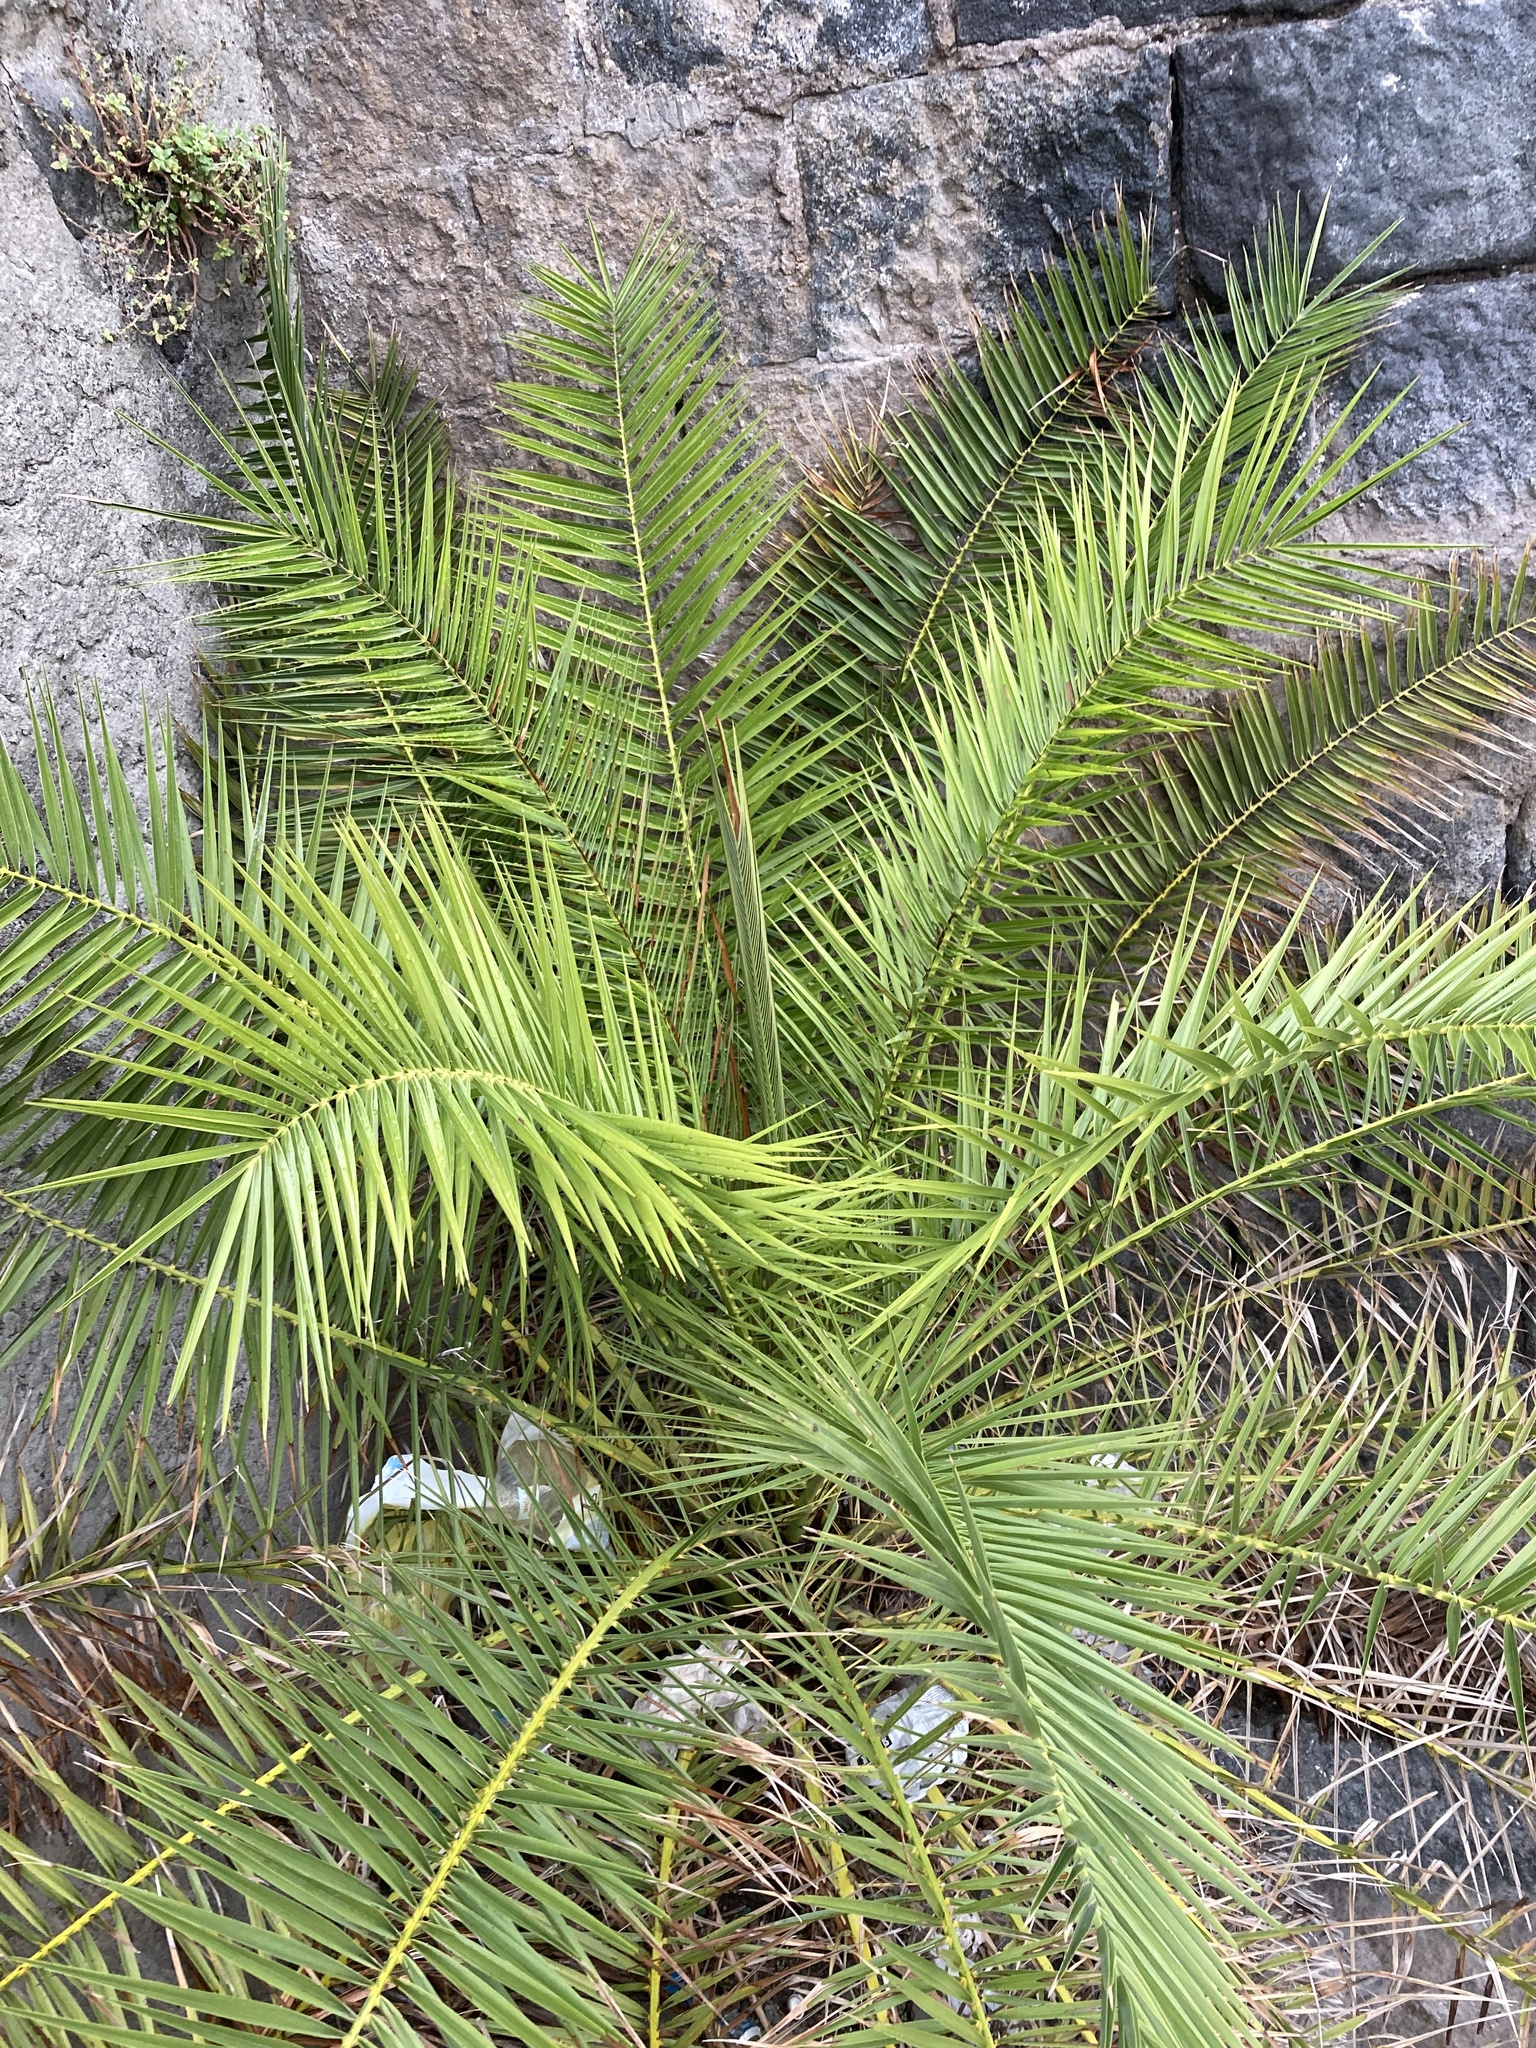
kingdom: Plantae
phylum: Tracheophyta
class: Liliopsida
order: Arecales
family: Arecaceae
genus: Phoenix
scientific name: Phoenix canariensis
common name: Canary island date palm
